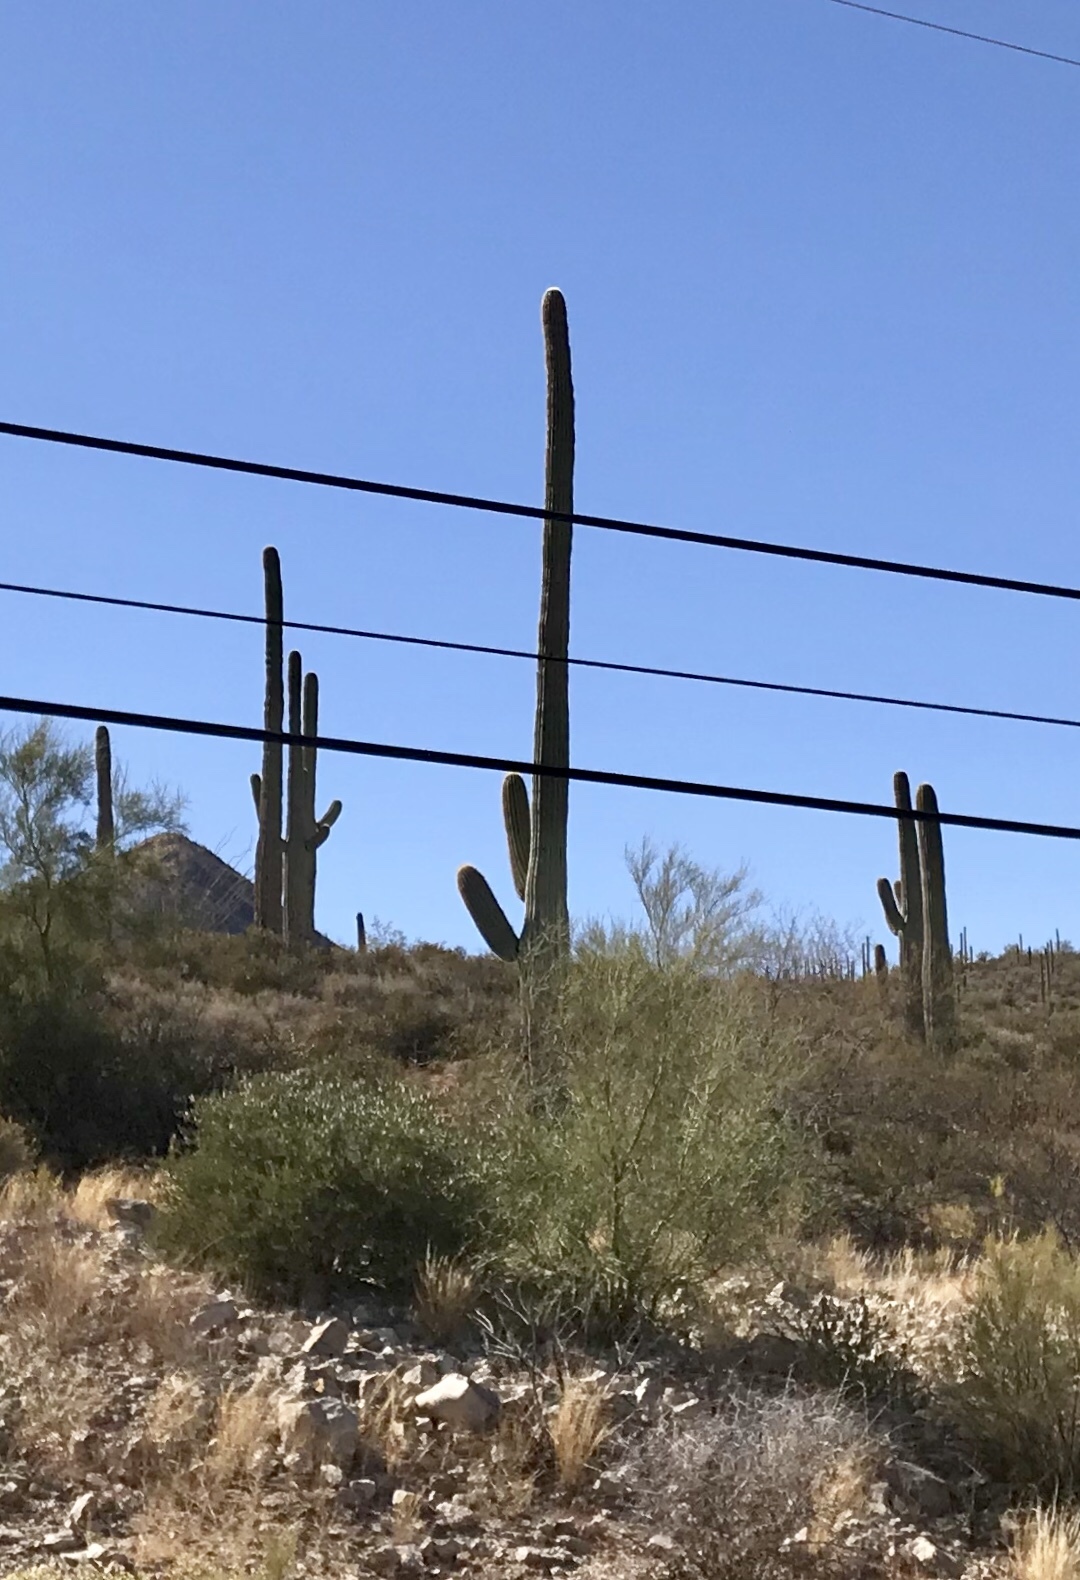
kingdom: Plantae
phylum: Tracheophyta
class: Magnoliopsida
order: Caryophyllales
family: Cactaceae
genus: Carnegiea
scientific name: Carnegiea gigantea
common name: Saguaro
